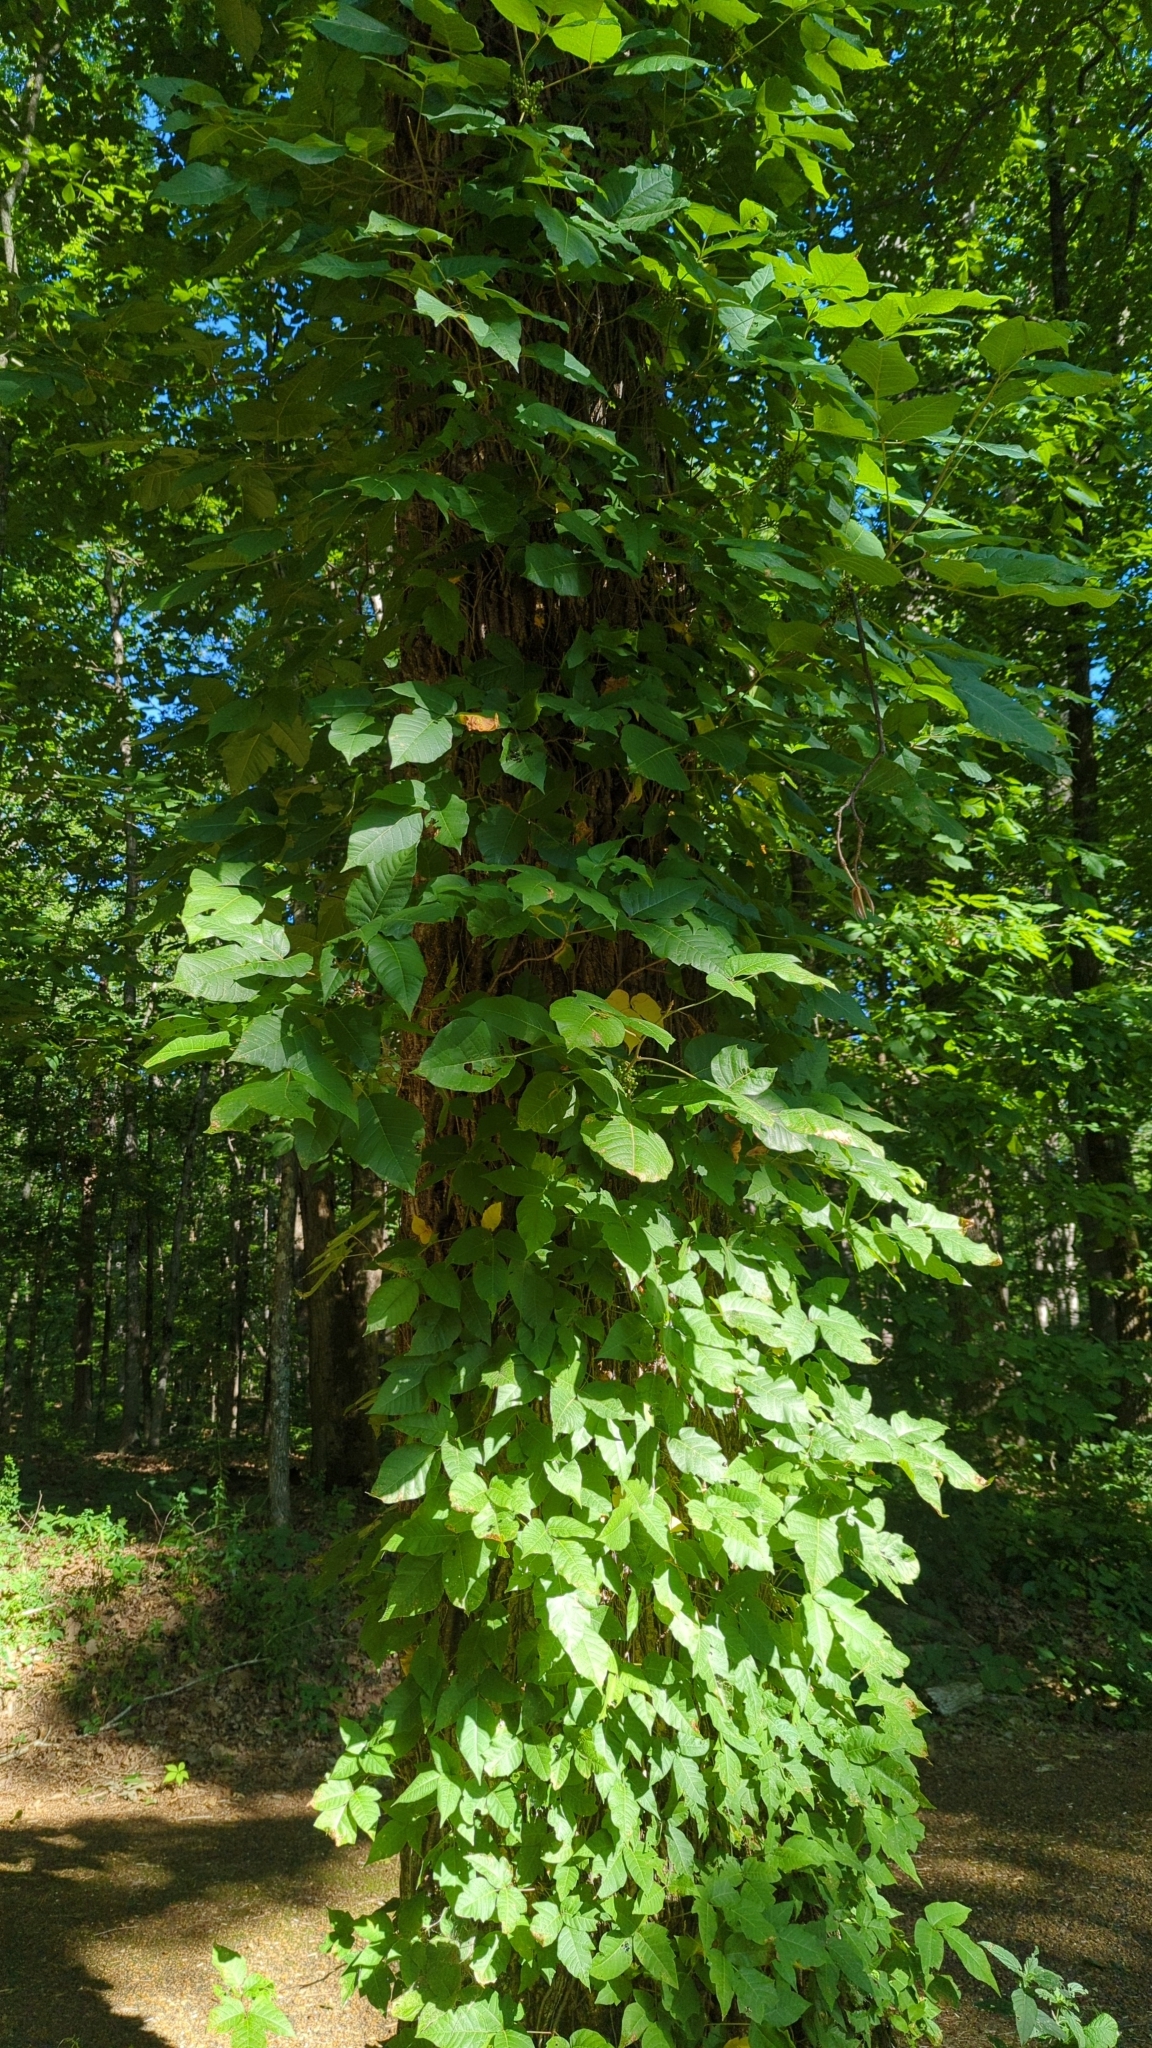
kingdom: Plantae
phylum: Tracheophyta
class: Magnoliopsida
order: Sapindales
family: Anacardiaceae
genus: Toxicodendron
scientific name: Toxicodendron radicans
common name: Poison ivy
